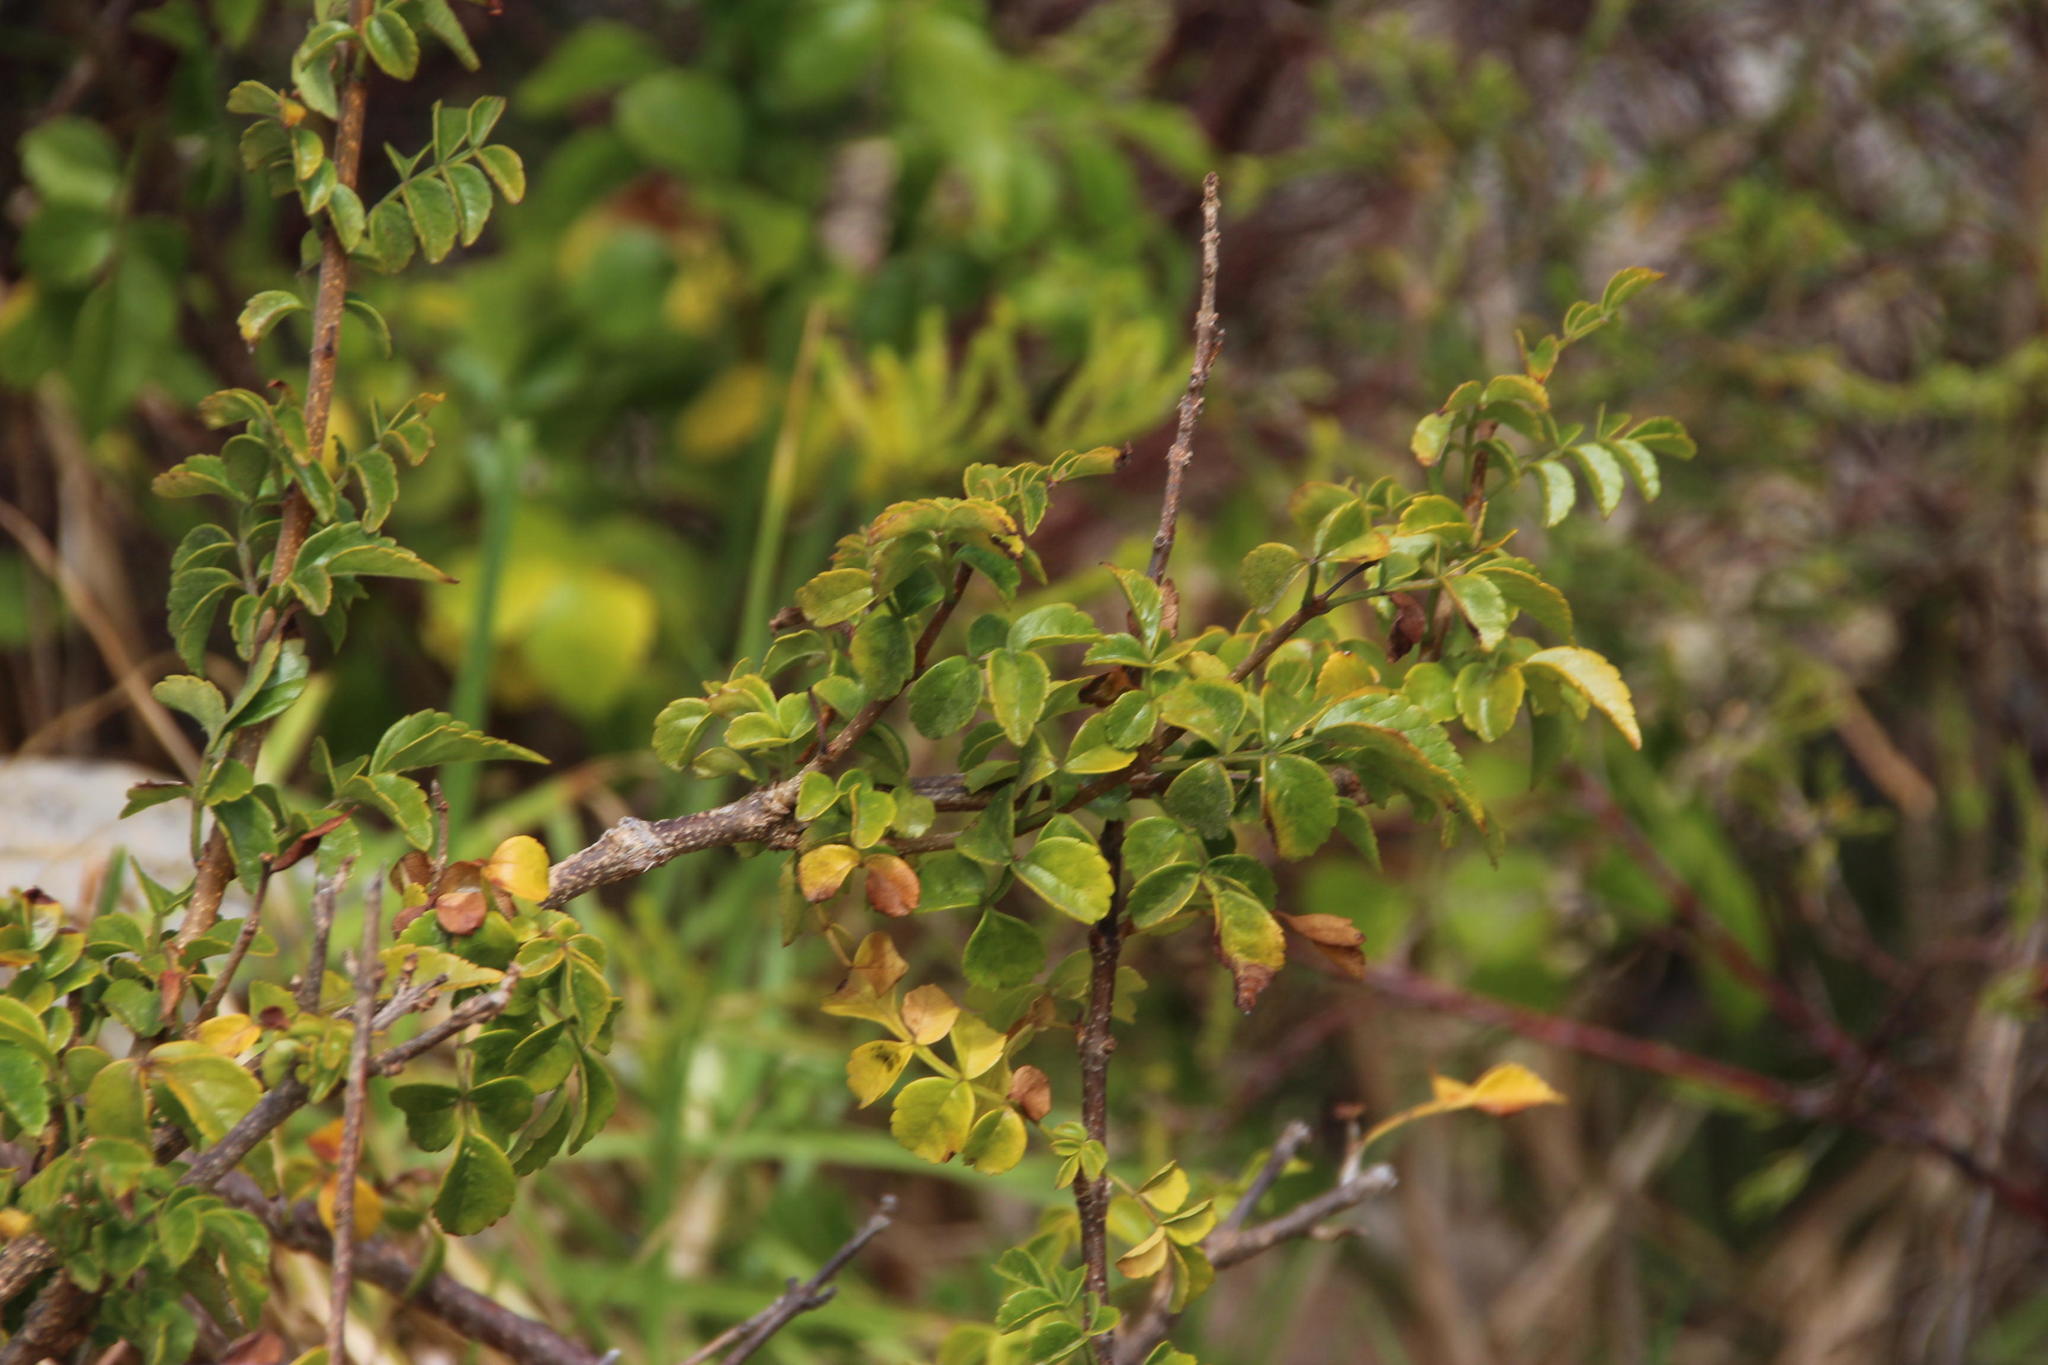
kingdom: Plantae
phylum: Tracheophyta
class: Magnoliopsida
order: Lamiales
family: Bignoniaceae
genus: Tecomaria
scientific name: Tecomaria capensis
